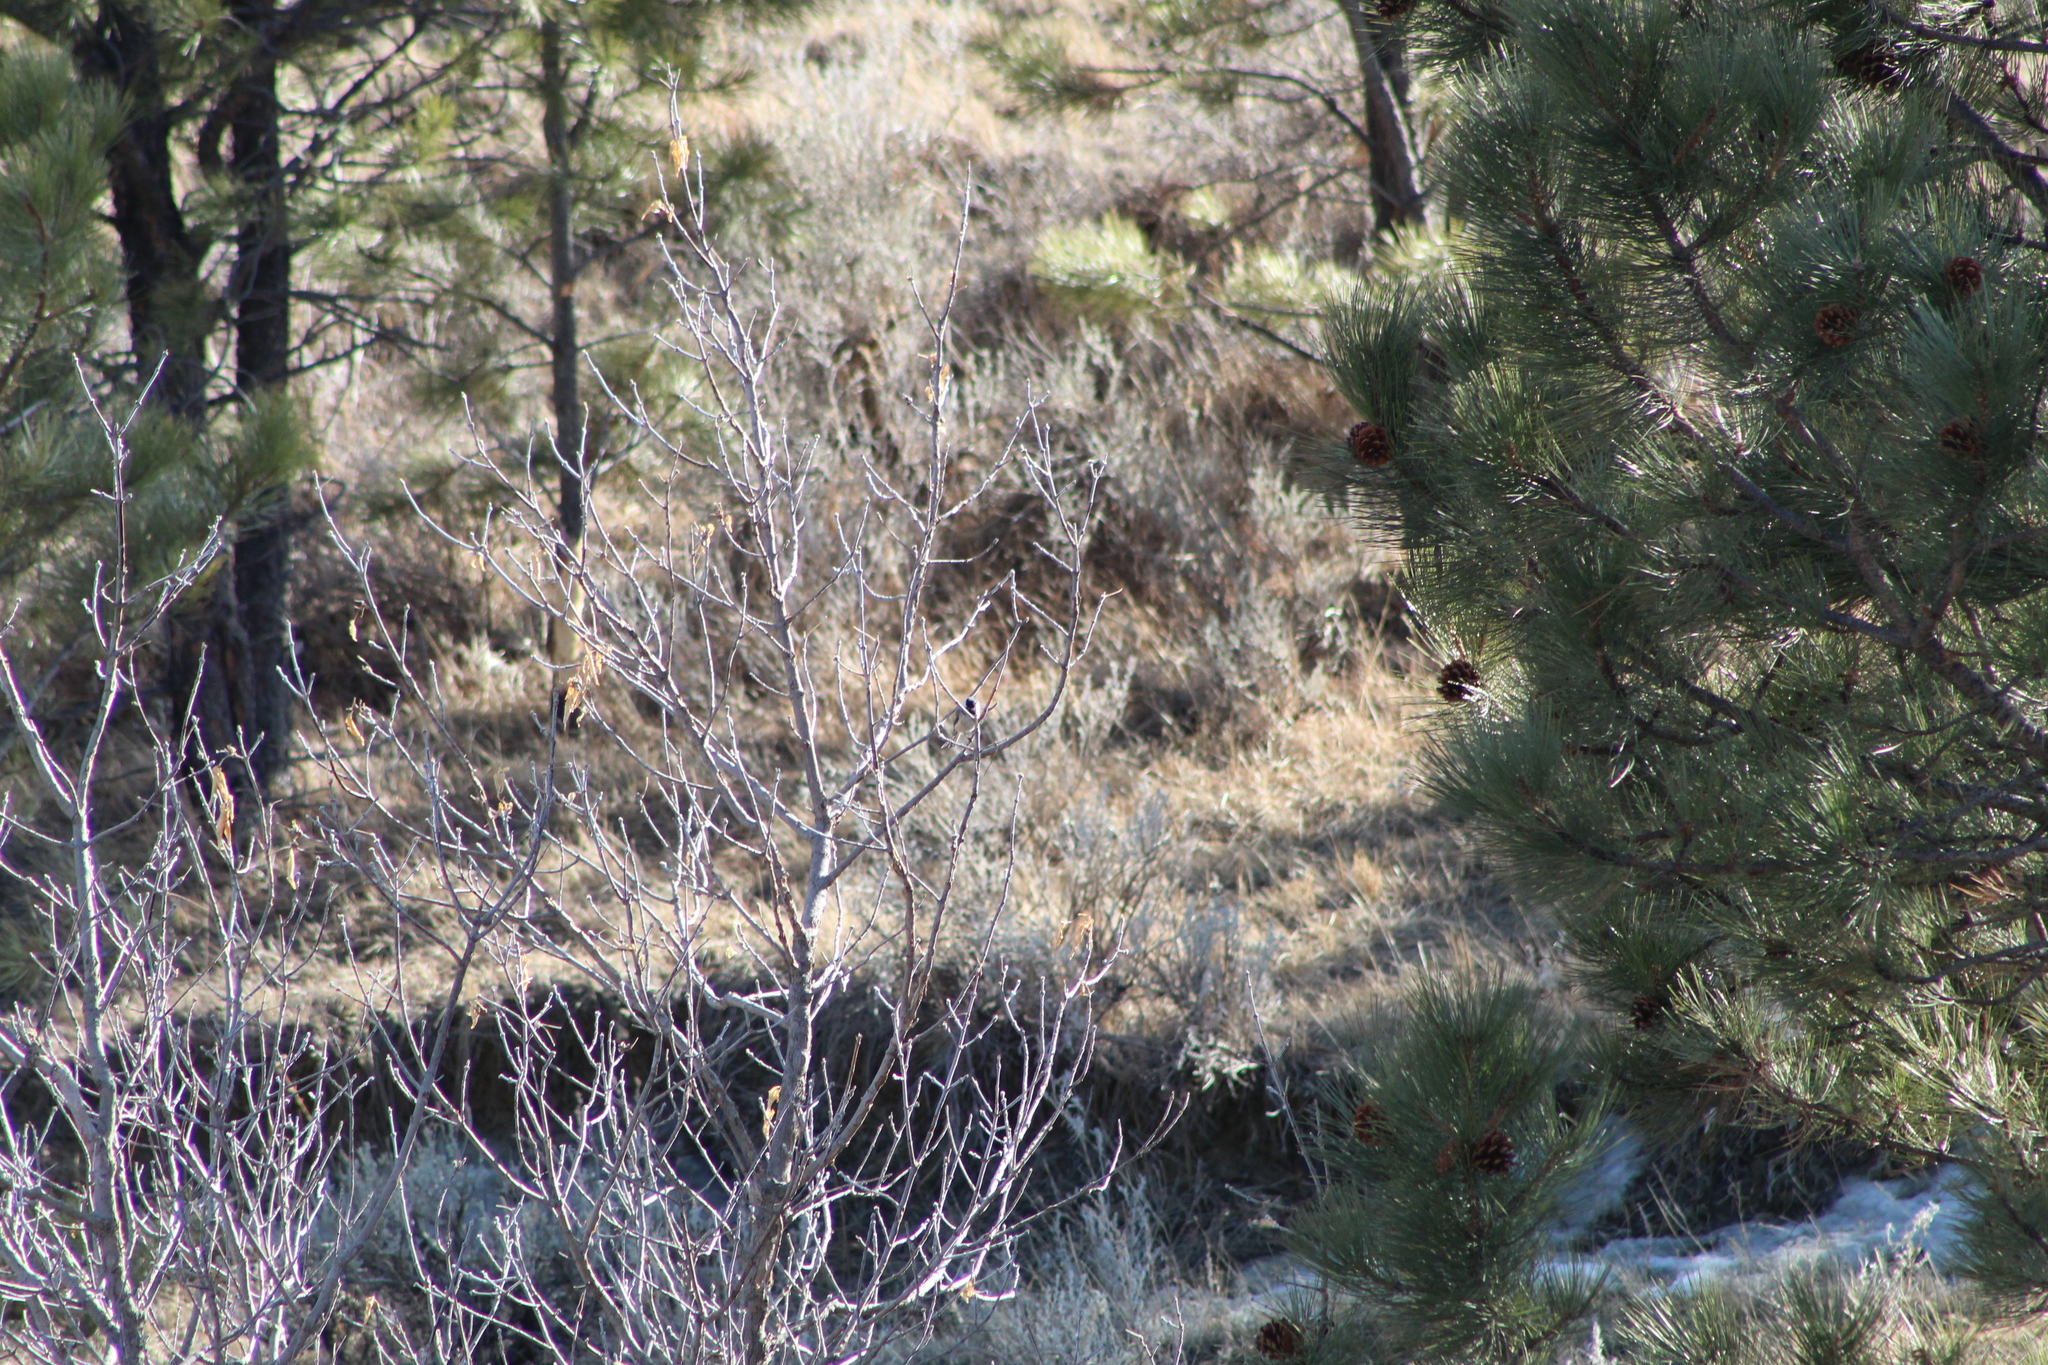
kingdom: Animalia
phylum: Chordata
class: Aves
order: Passeriformes
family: Paridae
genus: Poecile
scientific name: Poecile atricapillus
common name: Black-capped chickadee
